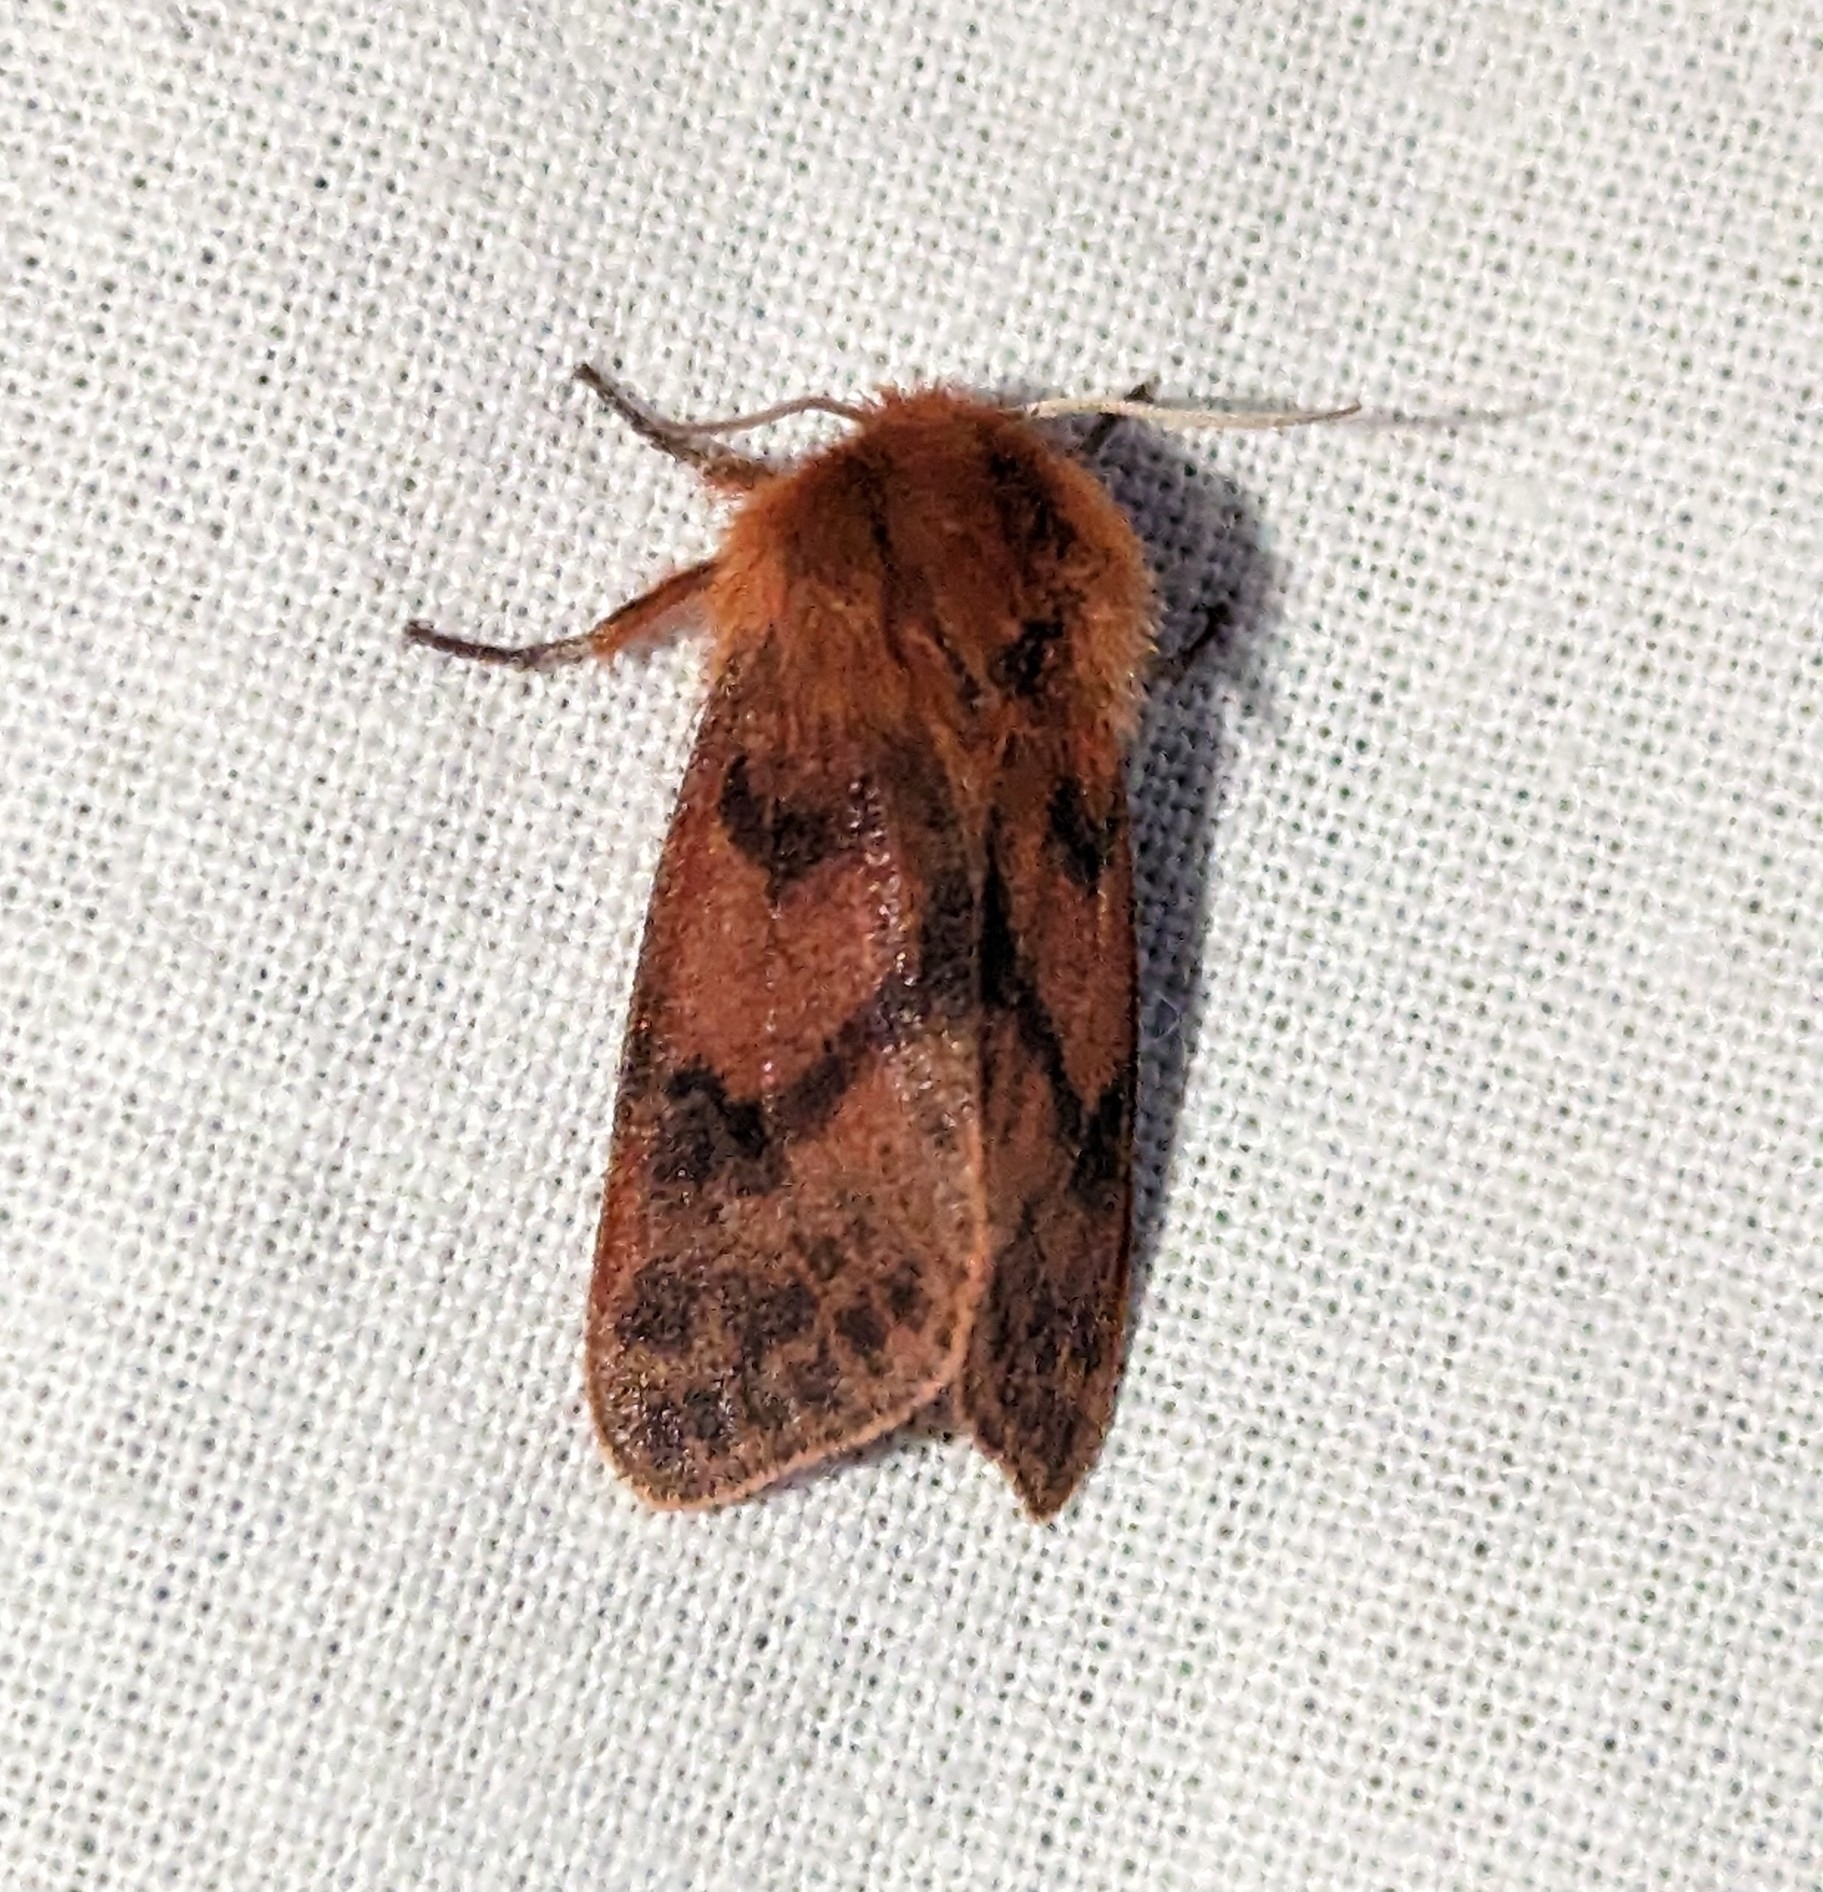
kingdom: Animalia
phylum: Arthropoda
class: Insecta
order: Lepidoptera
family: Erebidae
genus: Phragmatobia
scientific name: Phragmatobia assimilans
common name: Large ruby tiger moth
